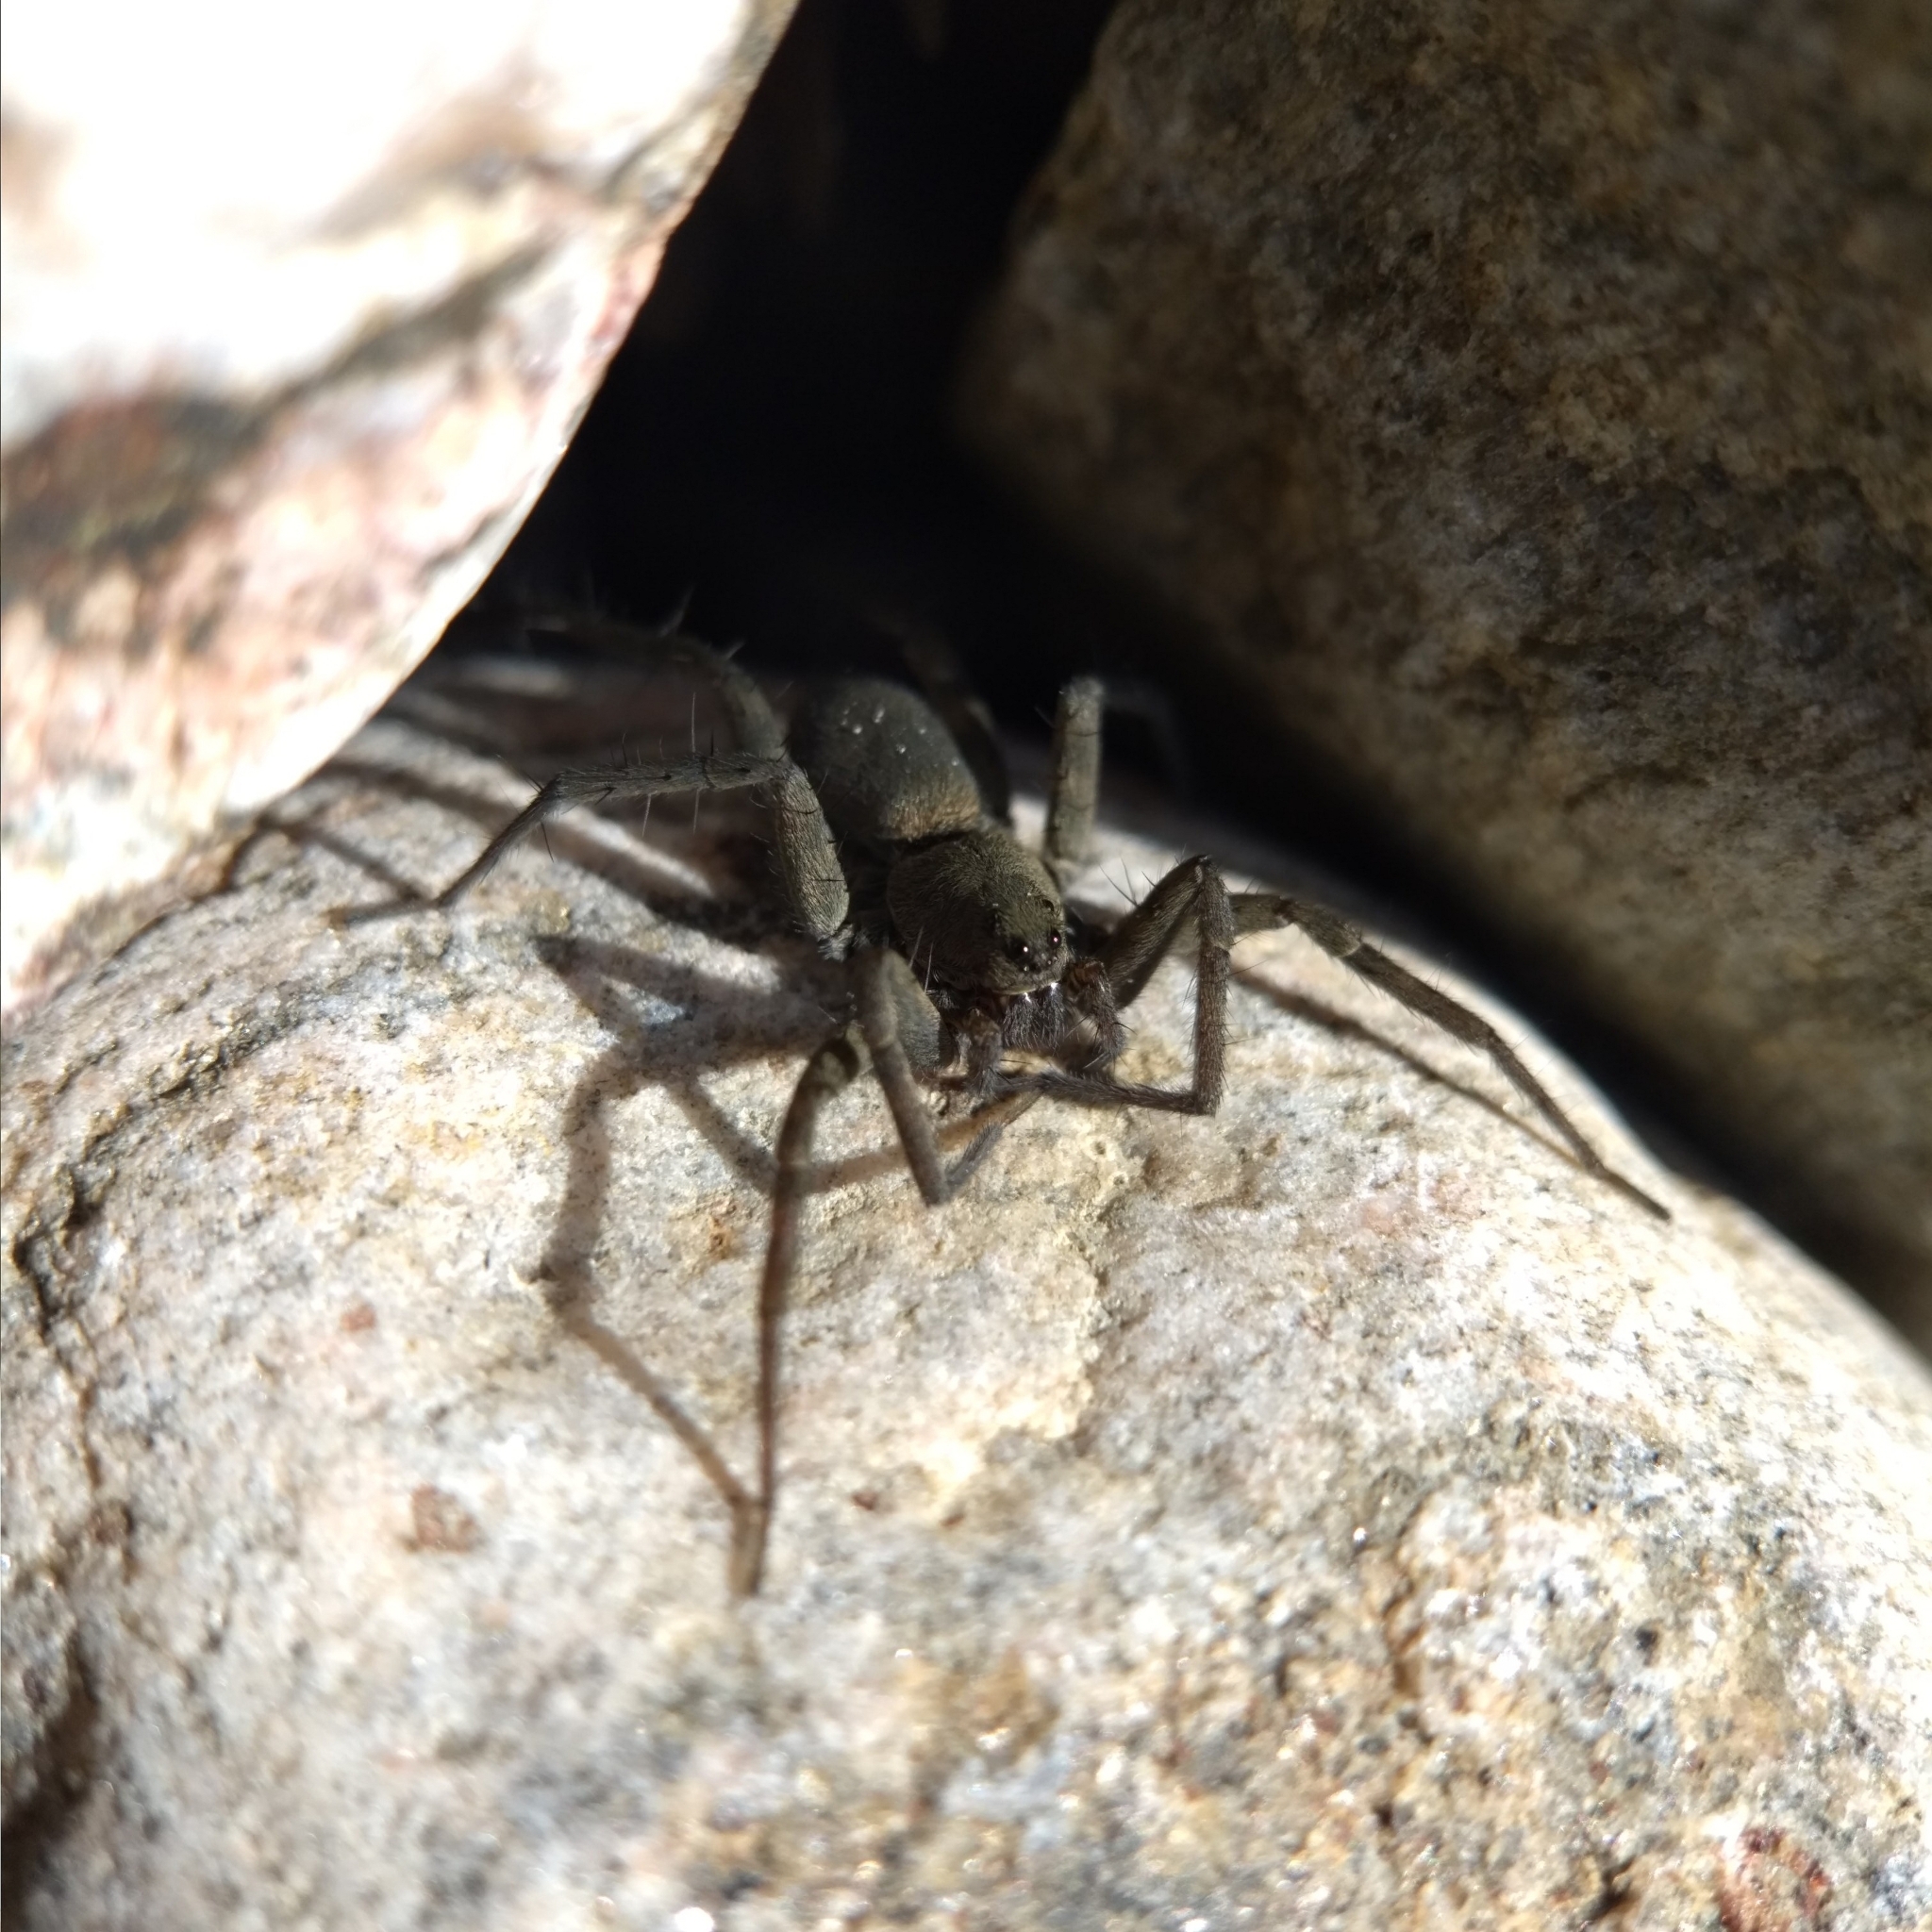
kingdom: Animalia
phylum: Arthropoda
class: Arachnida
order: Araneae
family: Lycosidae
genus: Pardosa
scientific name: Pardosa lapidicina
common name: Stone spider
